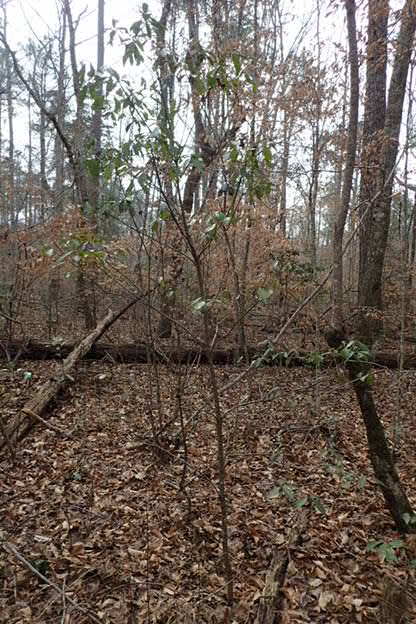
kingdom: Plantae
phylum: Tracheophyta
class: Magnoliopsida
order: Ericales
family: Symplocaceae
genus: Symplocos
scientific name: Symplocos tinctoria
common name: Horse-sugar
